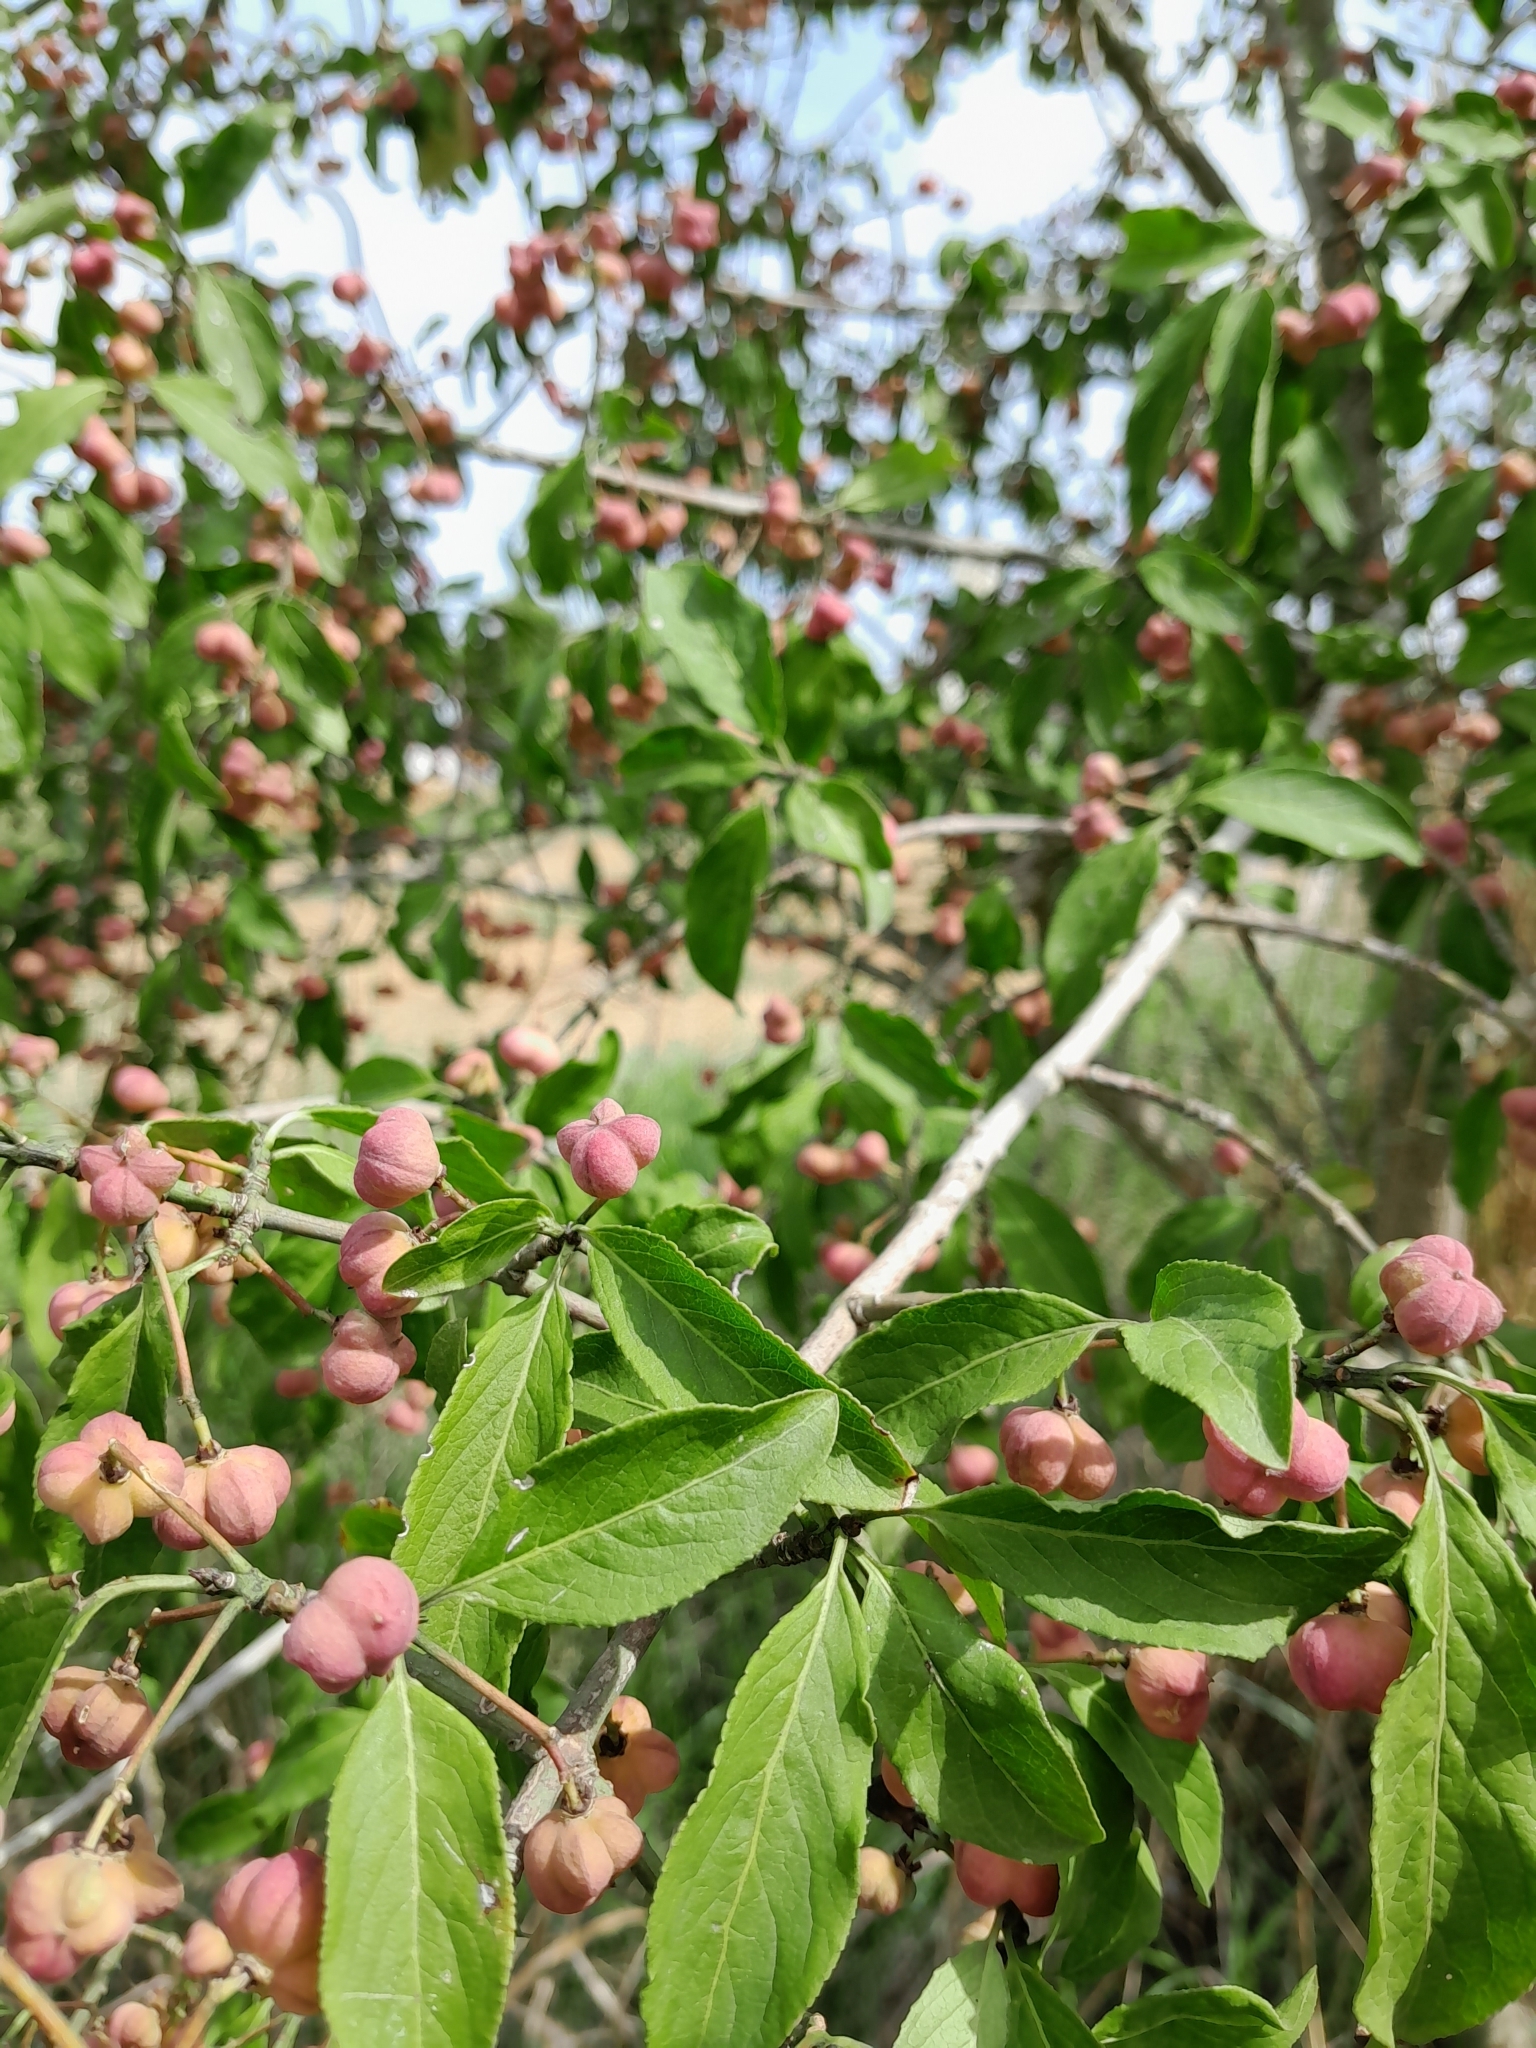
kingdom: Plantae
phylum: Tracheophyta
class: Magnoliopsida
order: Celastrales
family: Celastraceae
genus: Euonymus
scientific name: Euonymus europaeus
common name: Spindle
